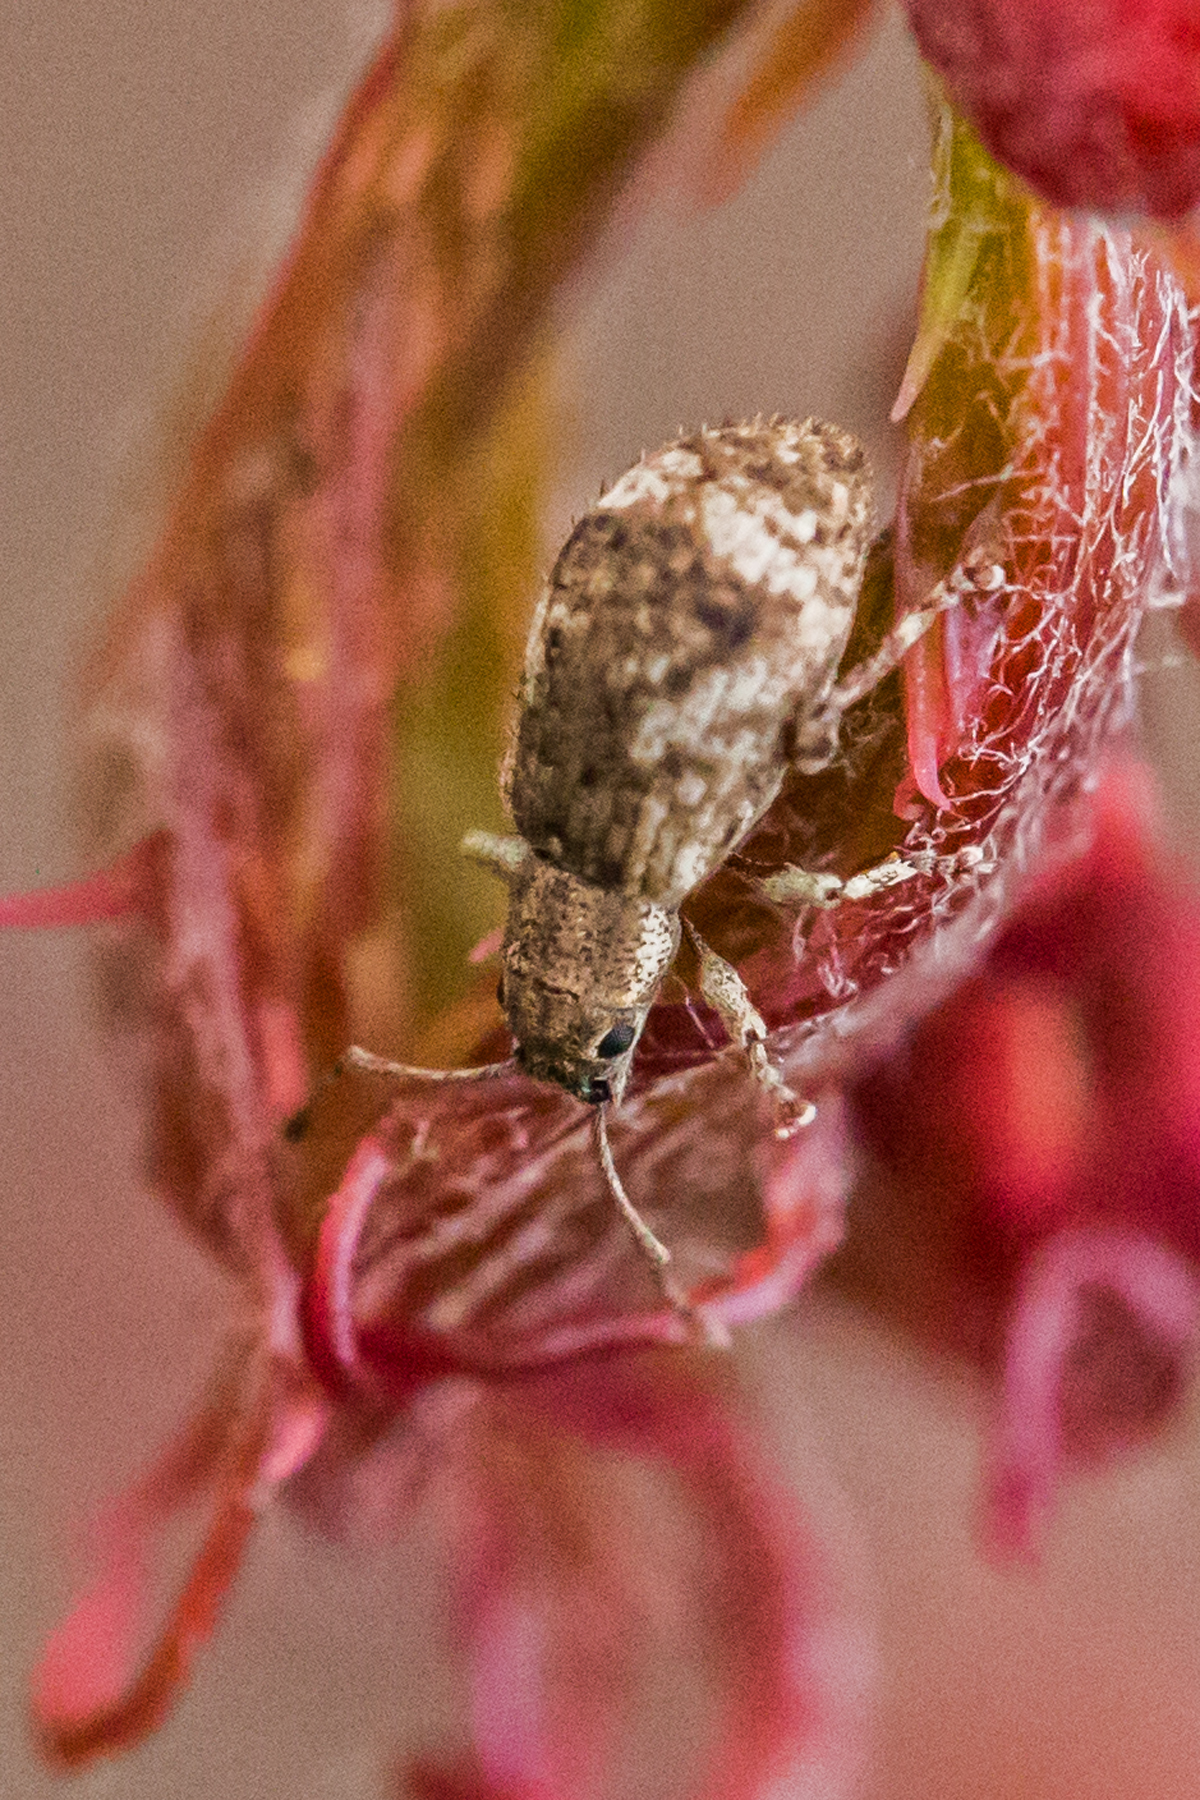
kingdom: Animalia
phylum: Arthropoda
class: Insecta
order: Coleoptera
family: Curculionidae
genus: Pseudoedophrys
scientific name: Pseudoedophrys hilleri
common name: Weevil
